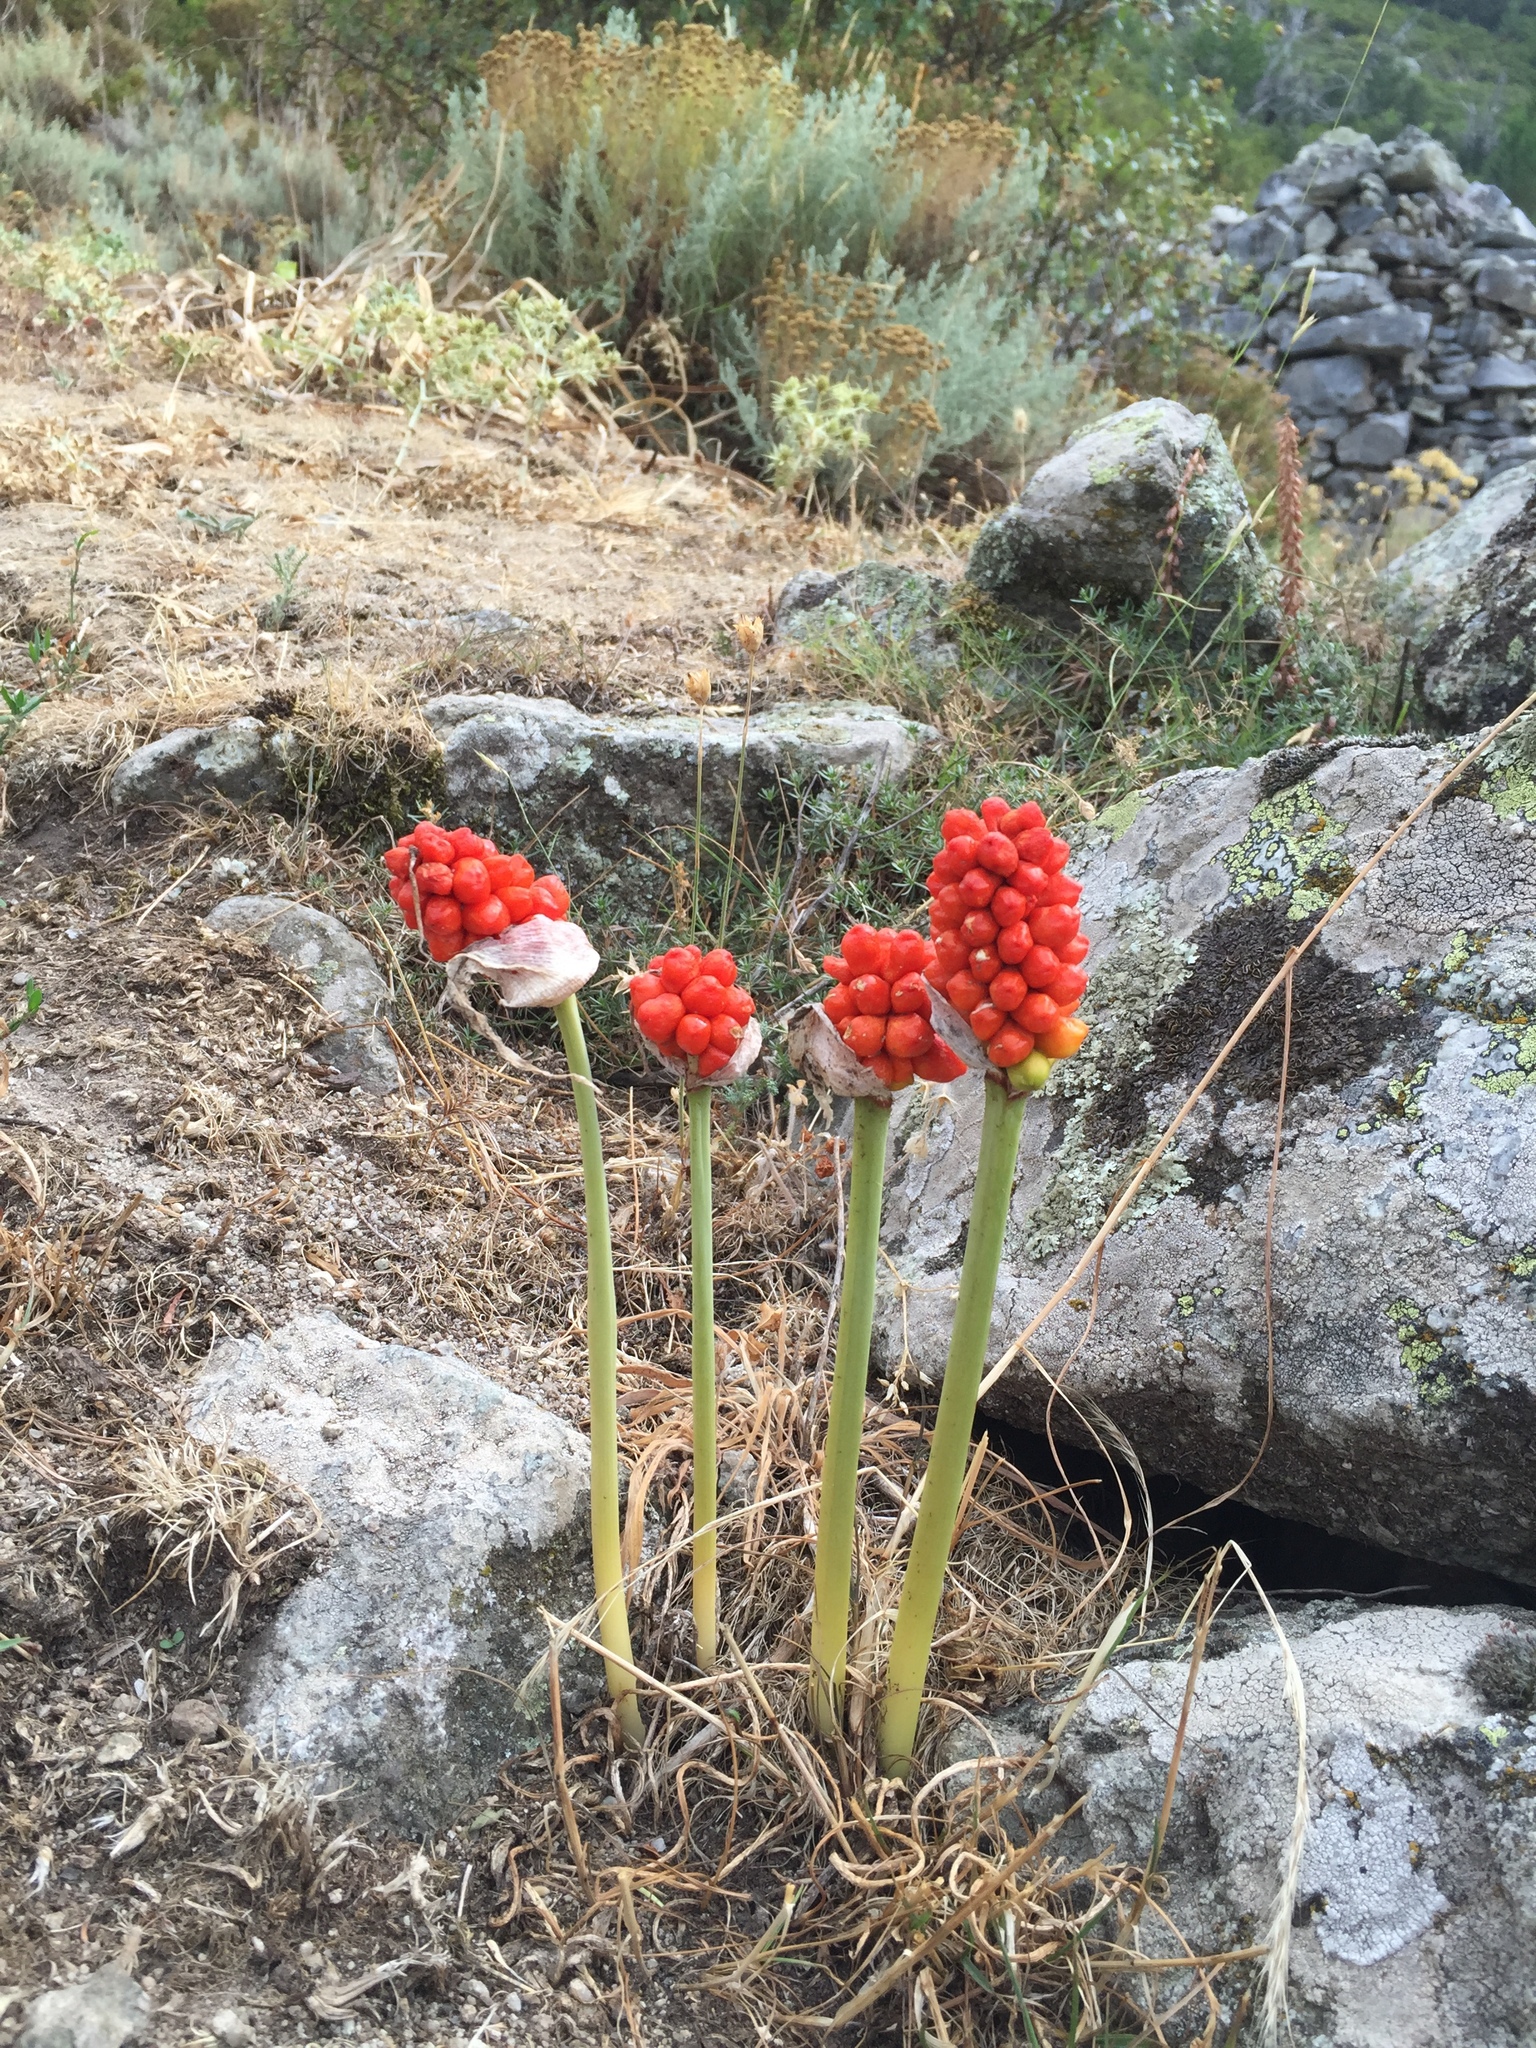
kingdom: Plantae
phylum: Tracheophyta
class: Liliopsida
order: Alismatales
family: Araceae
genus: Arum
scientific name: Arum italicum
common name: Italian lords-and-ladies
